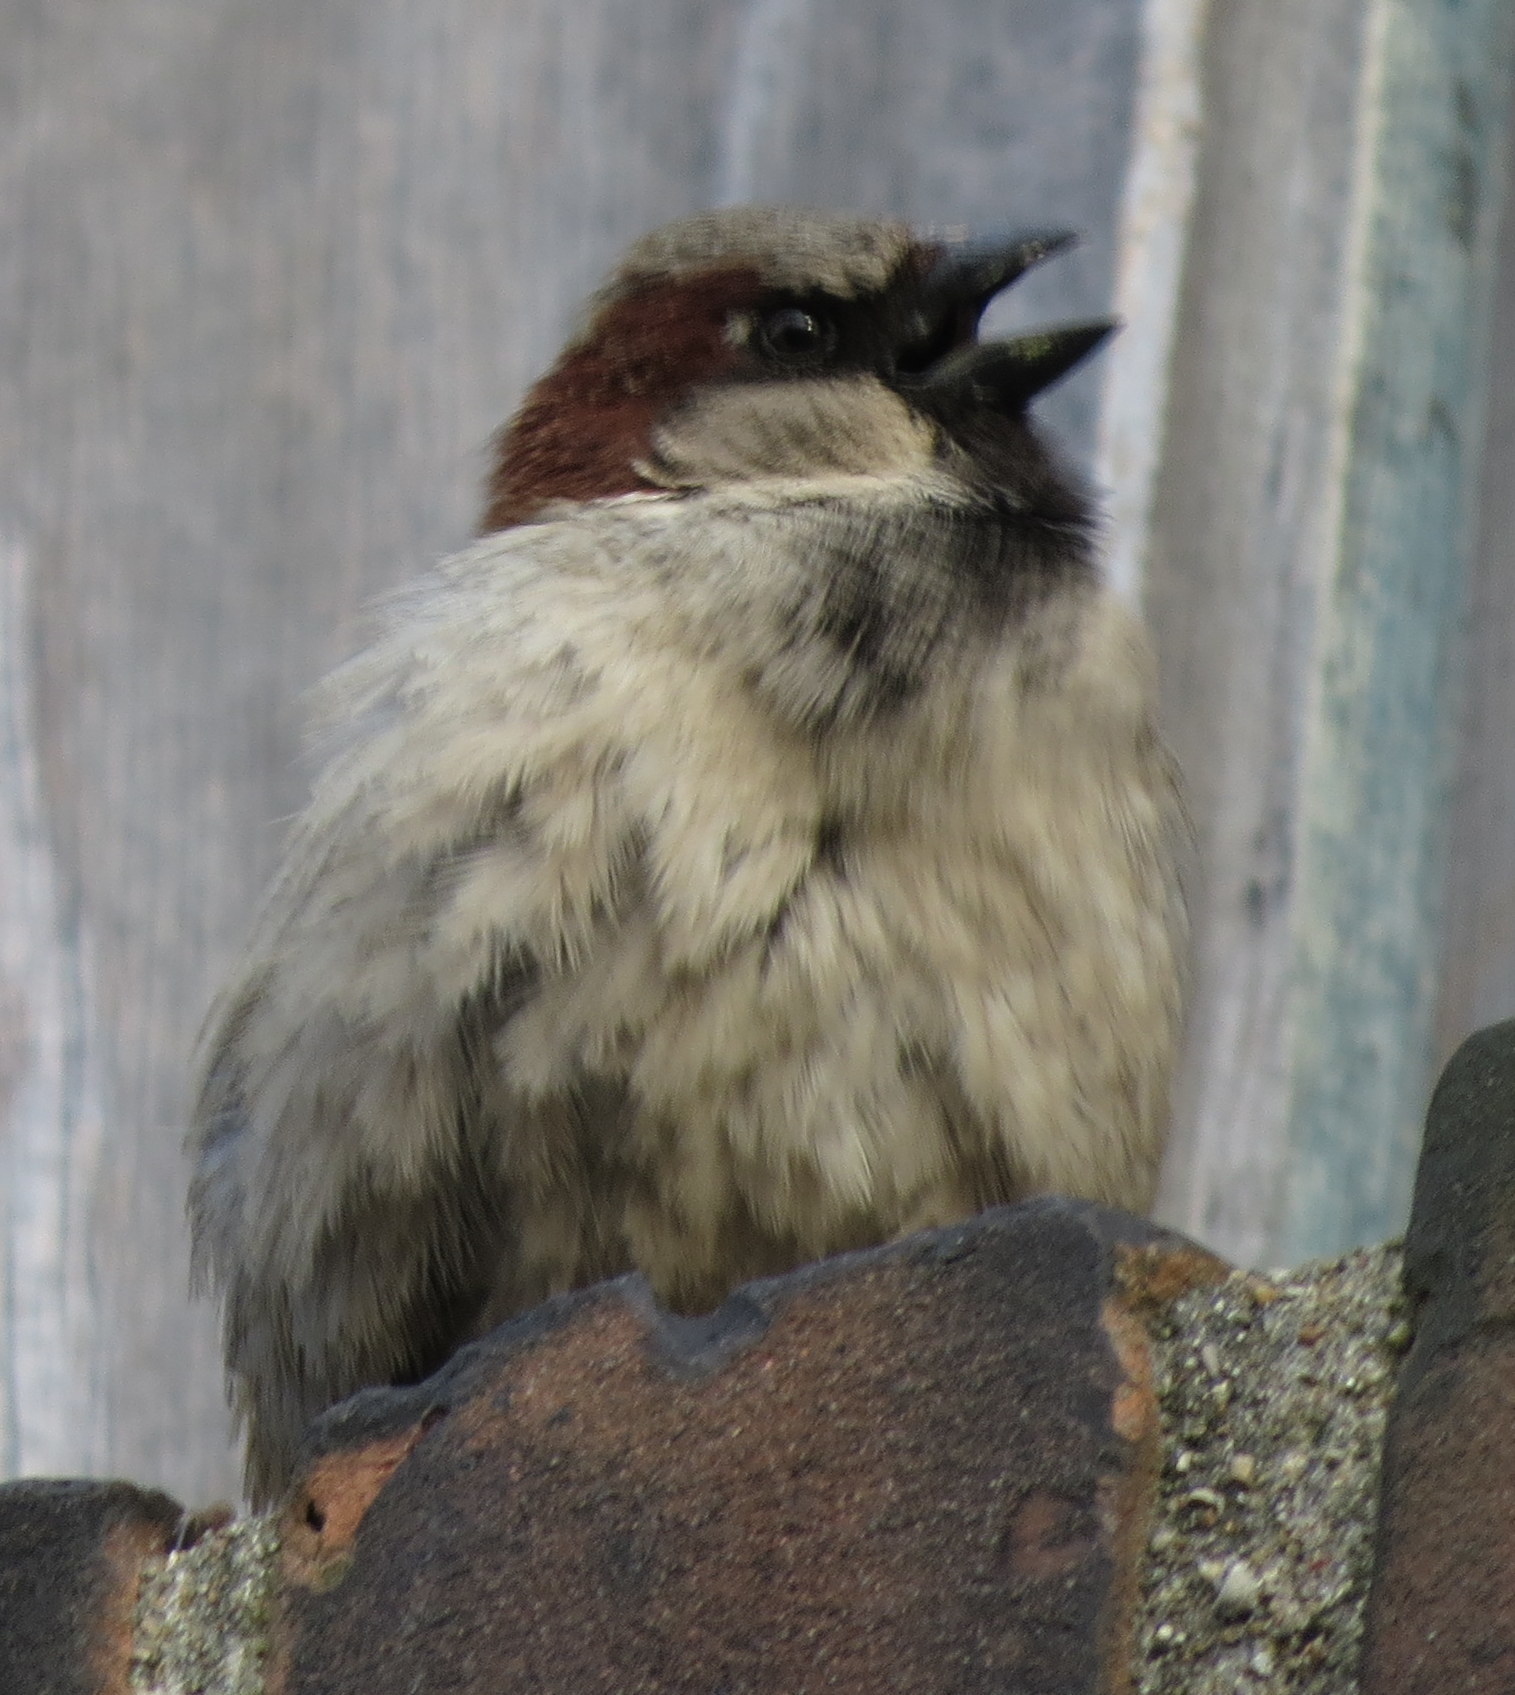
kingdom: Animalia
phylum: Chordata
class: Aves
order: Passeriformes
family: Passeridae
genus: Passer
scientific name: Passer domesticus
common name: House sparrow
